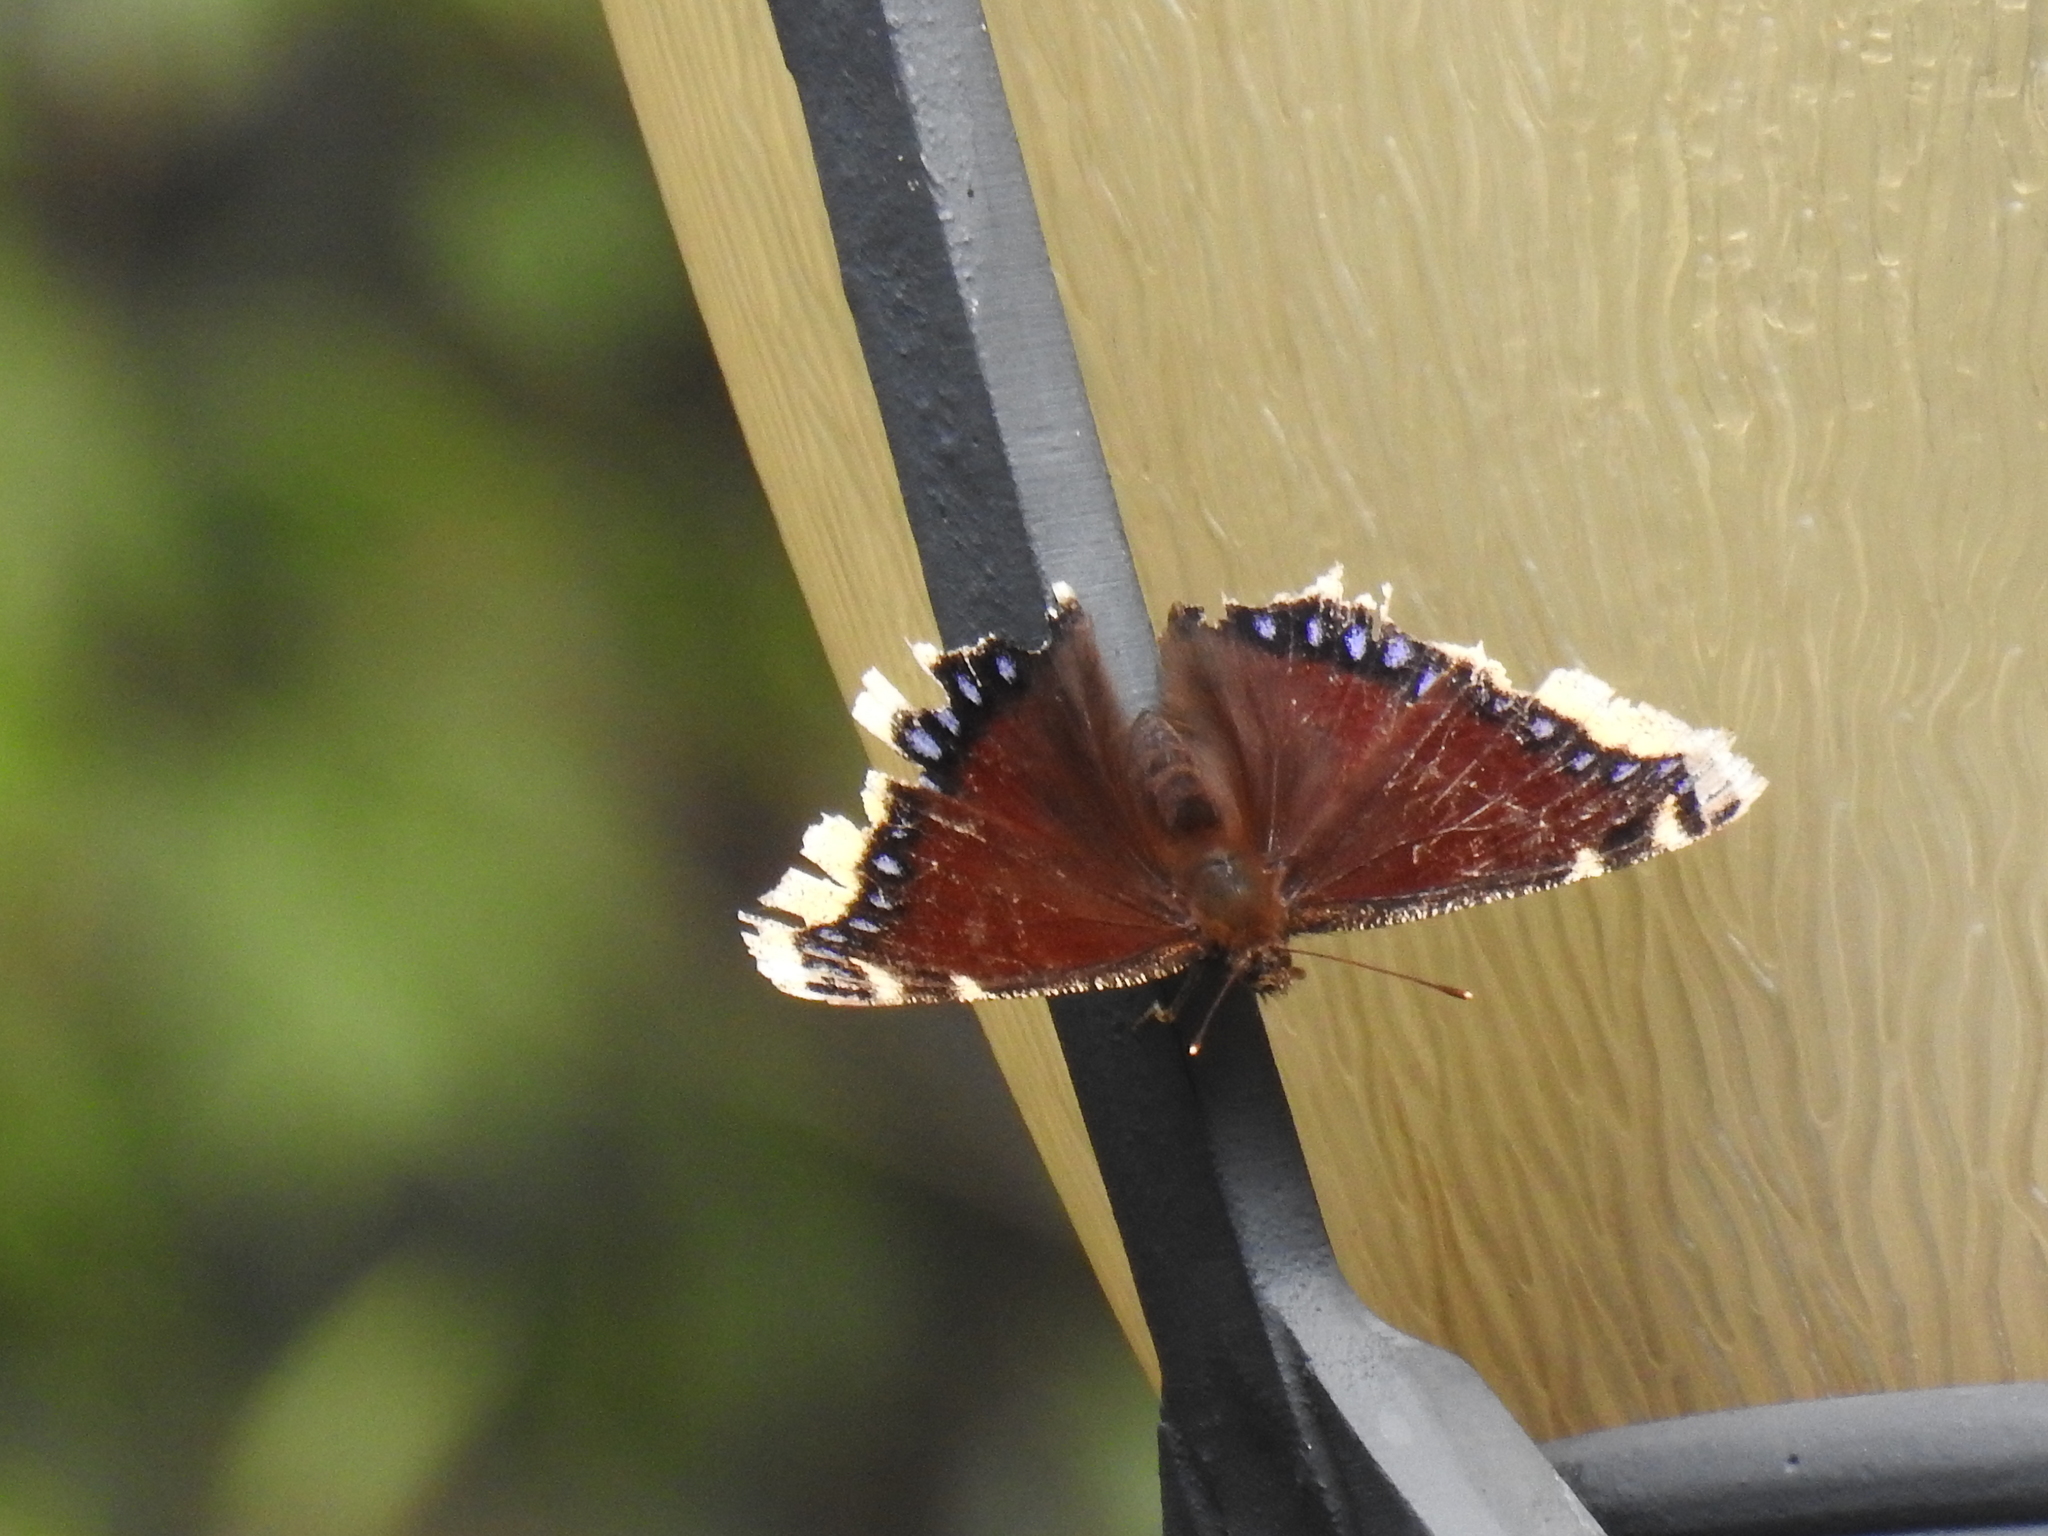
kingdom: Animalia
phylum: Arthropoda
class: Insecta
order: Lepidoptera
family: Nymphalidae
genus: Nymphalis
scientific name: Nymphalis antiopa
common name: Camberwell beauty
